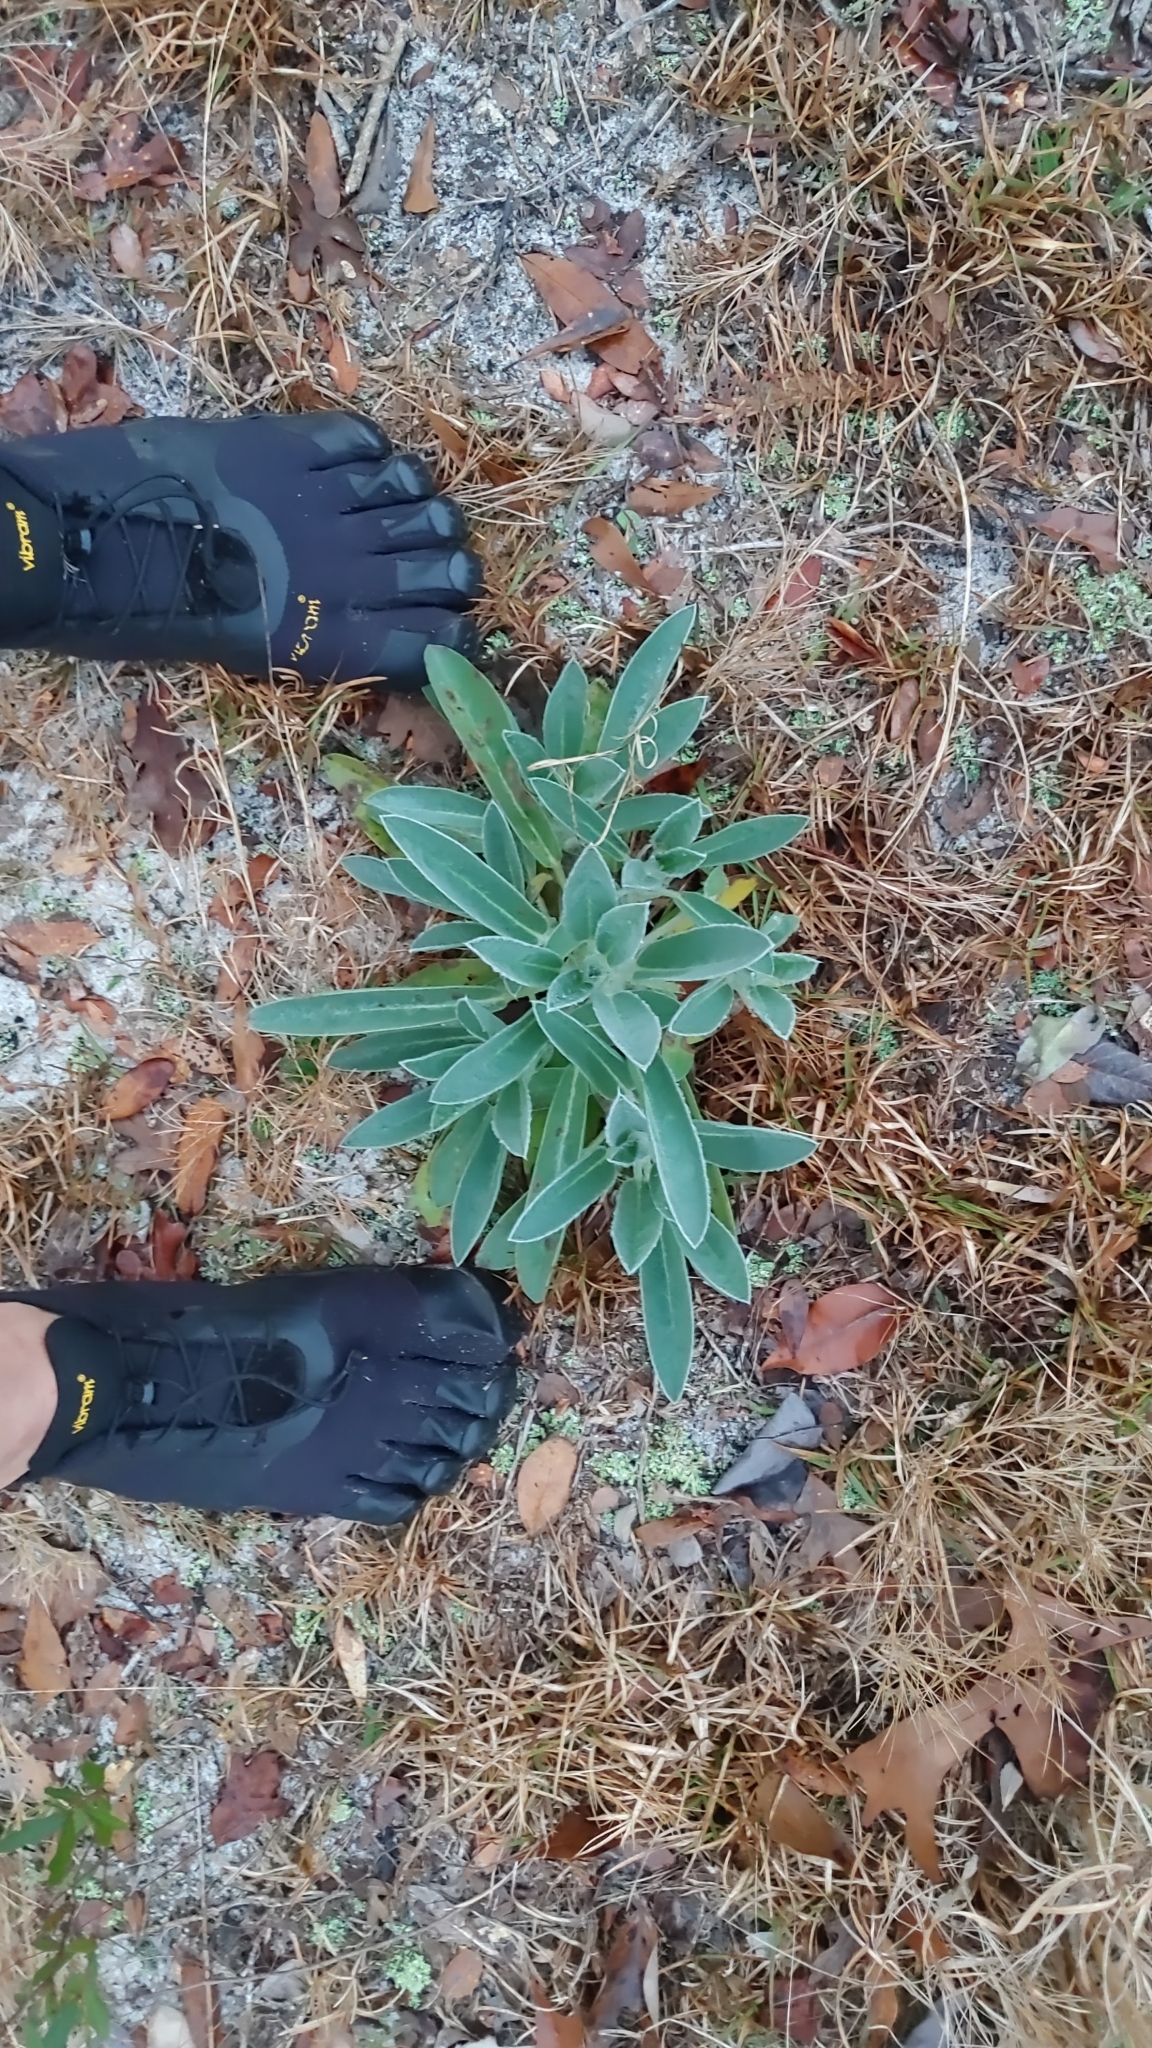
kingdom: Plantae
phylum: Tracheophyta
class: Magnoliopsida
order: Fabales
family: Fabaceae
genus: Lupinus
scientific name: Lupinus villosus
